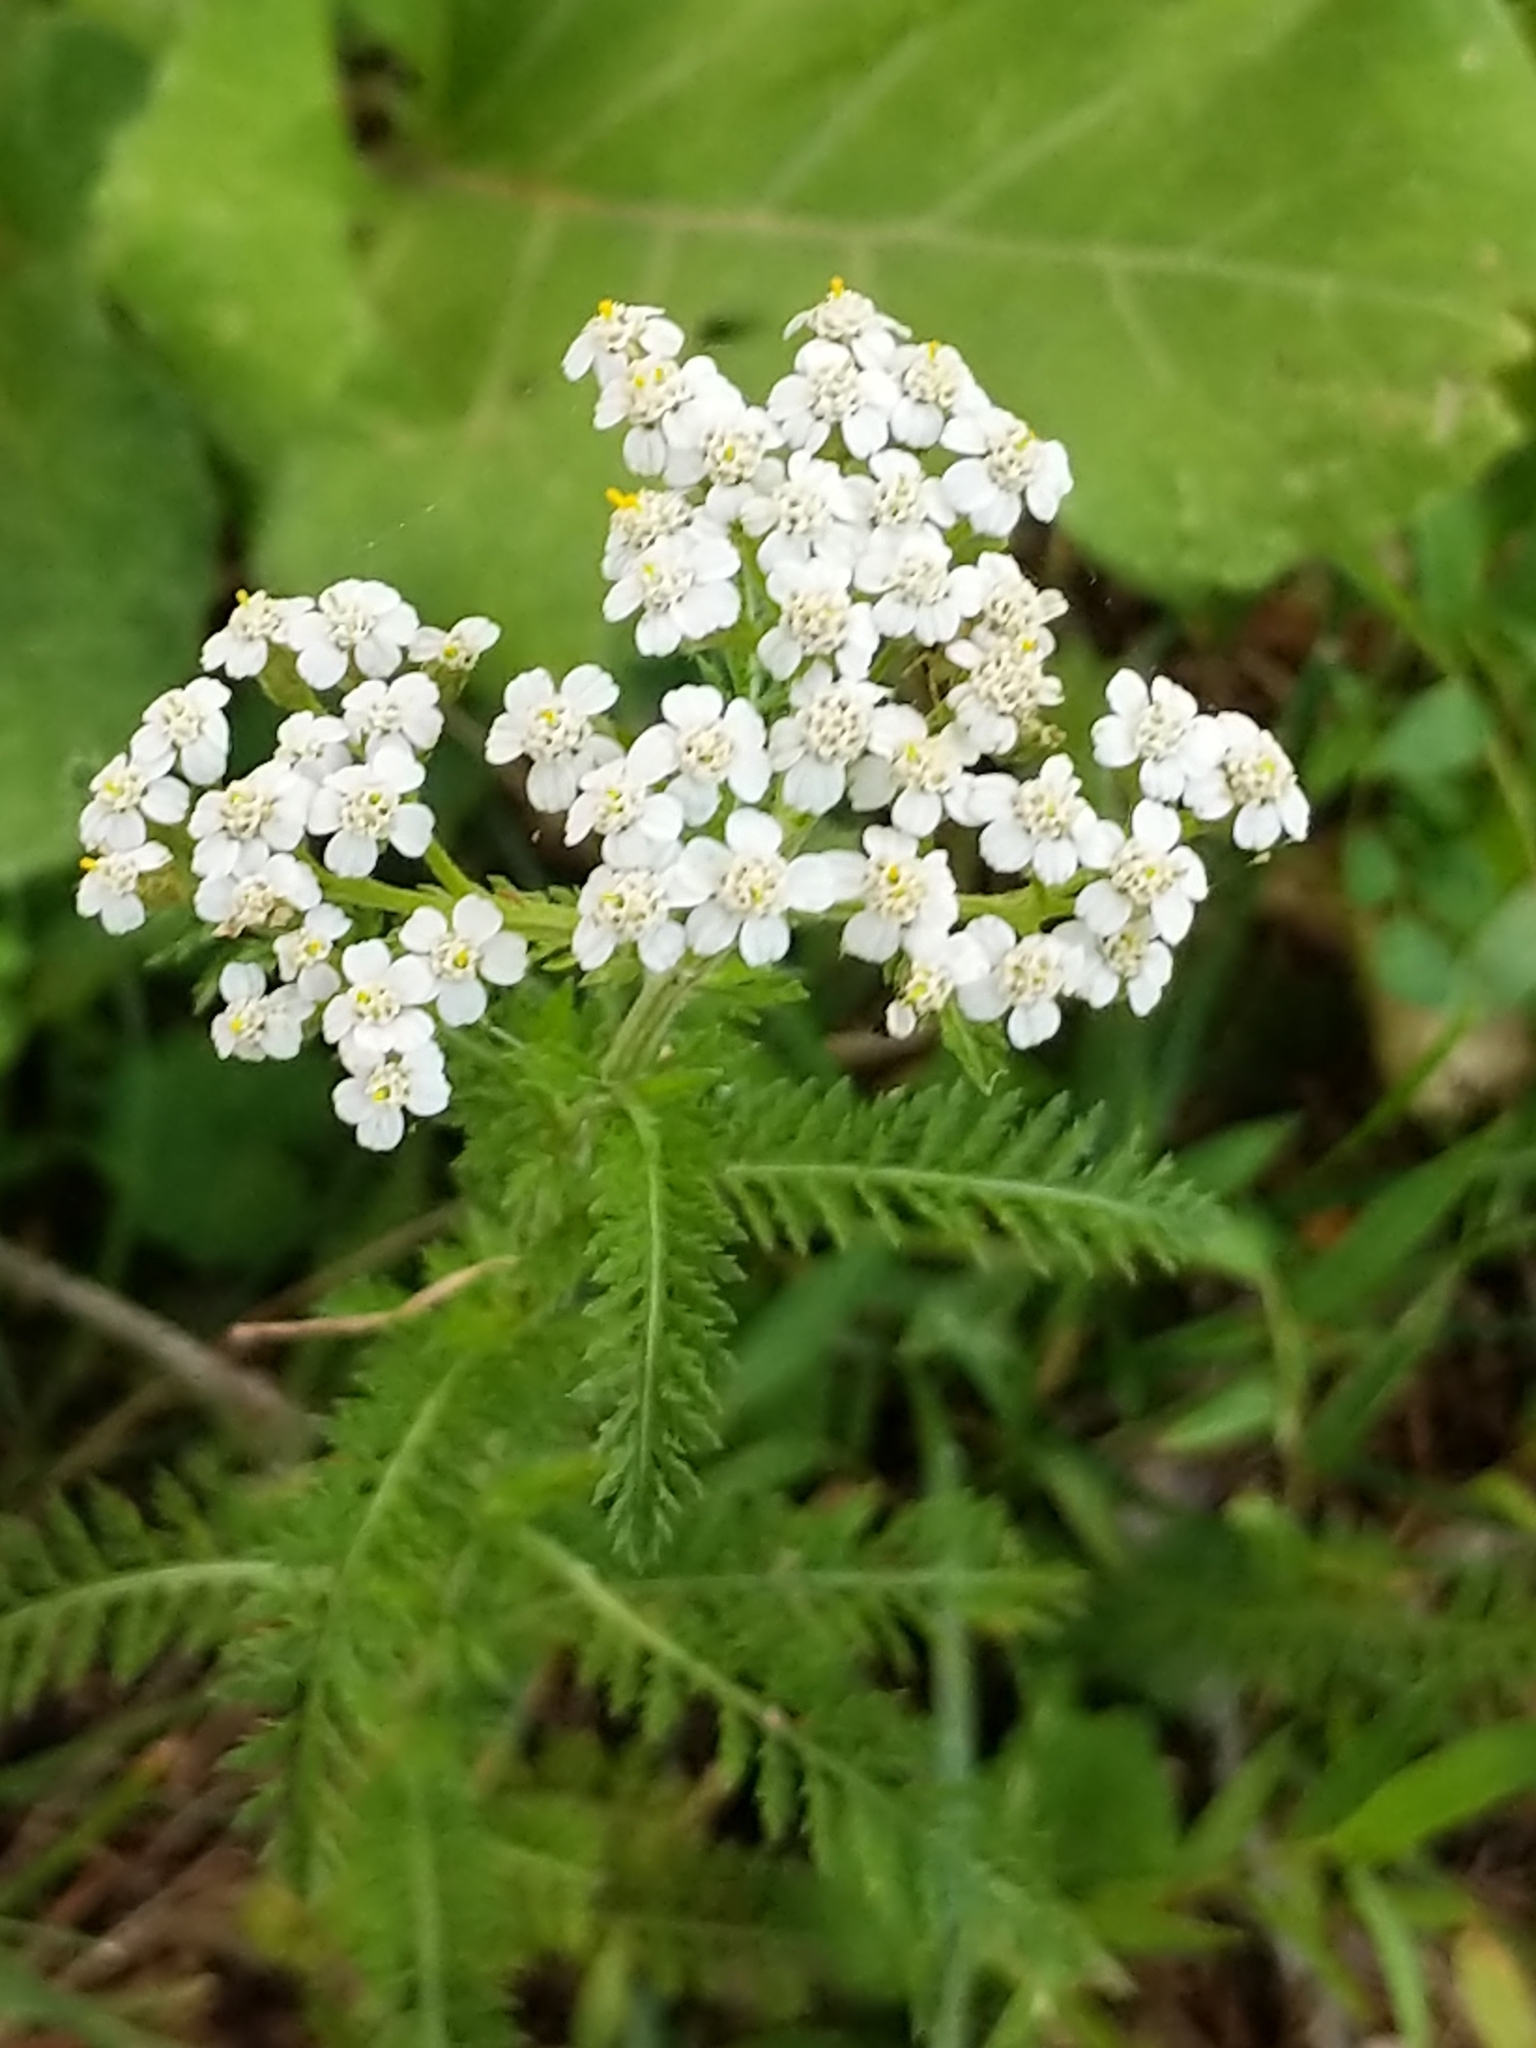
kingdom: Plantae
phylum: Tracheophyta
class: Magnoliopsida
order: Asterales
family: Asteraceae
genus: Achillea
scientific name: Achillea millefolium
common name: Yarrow
